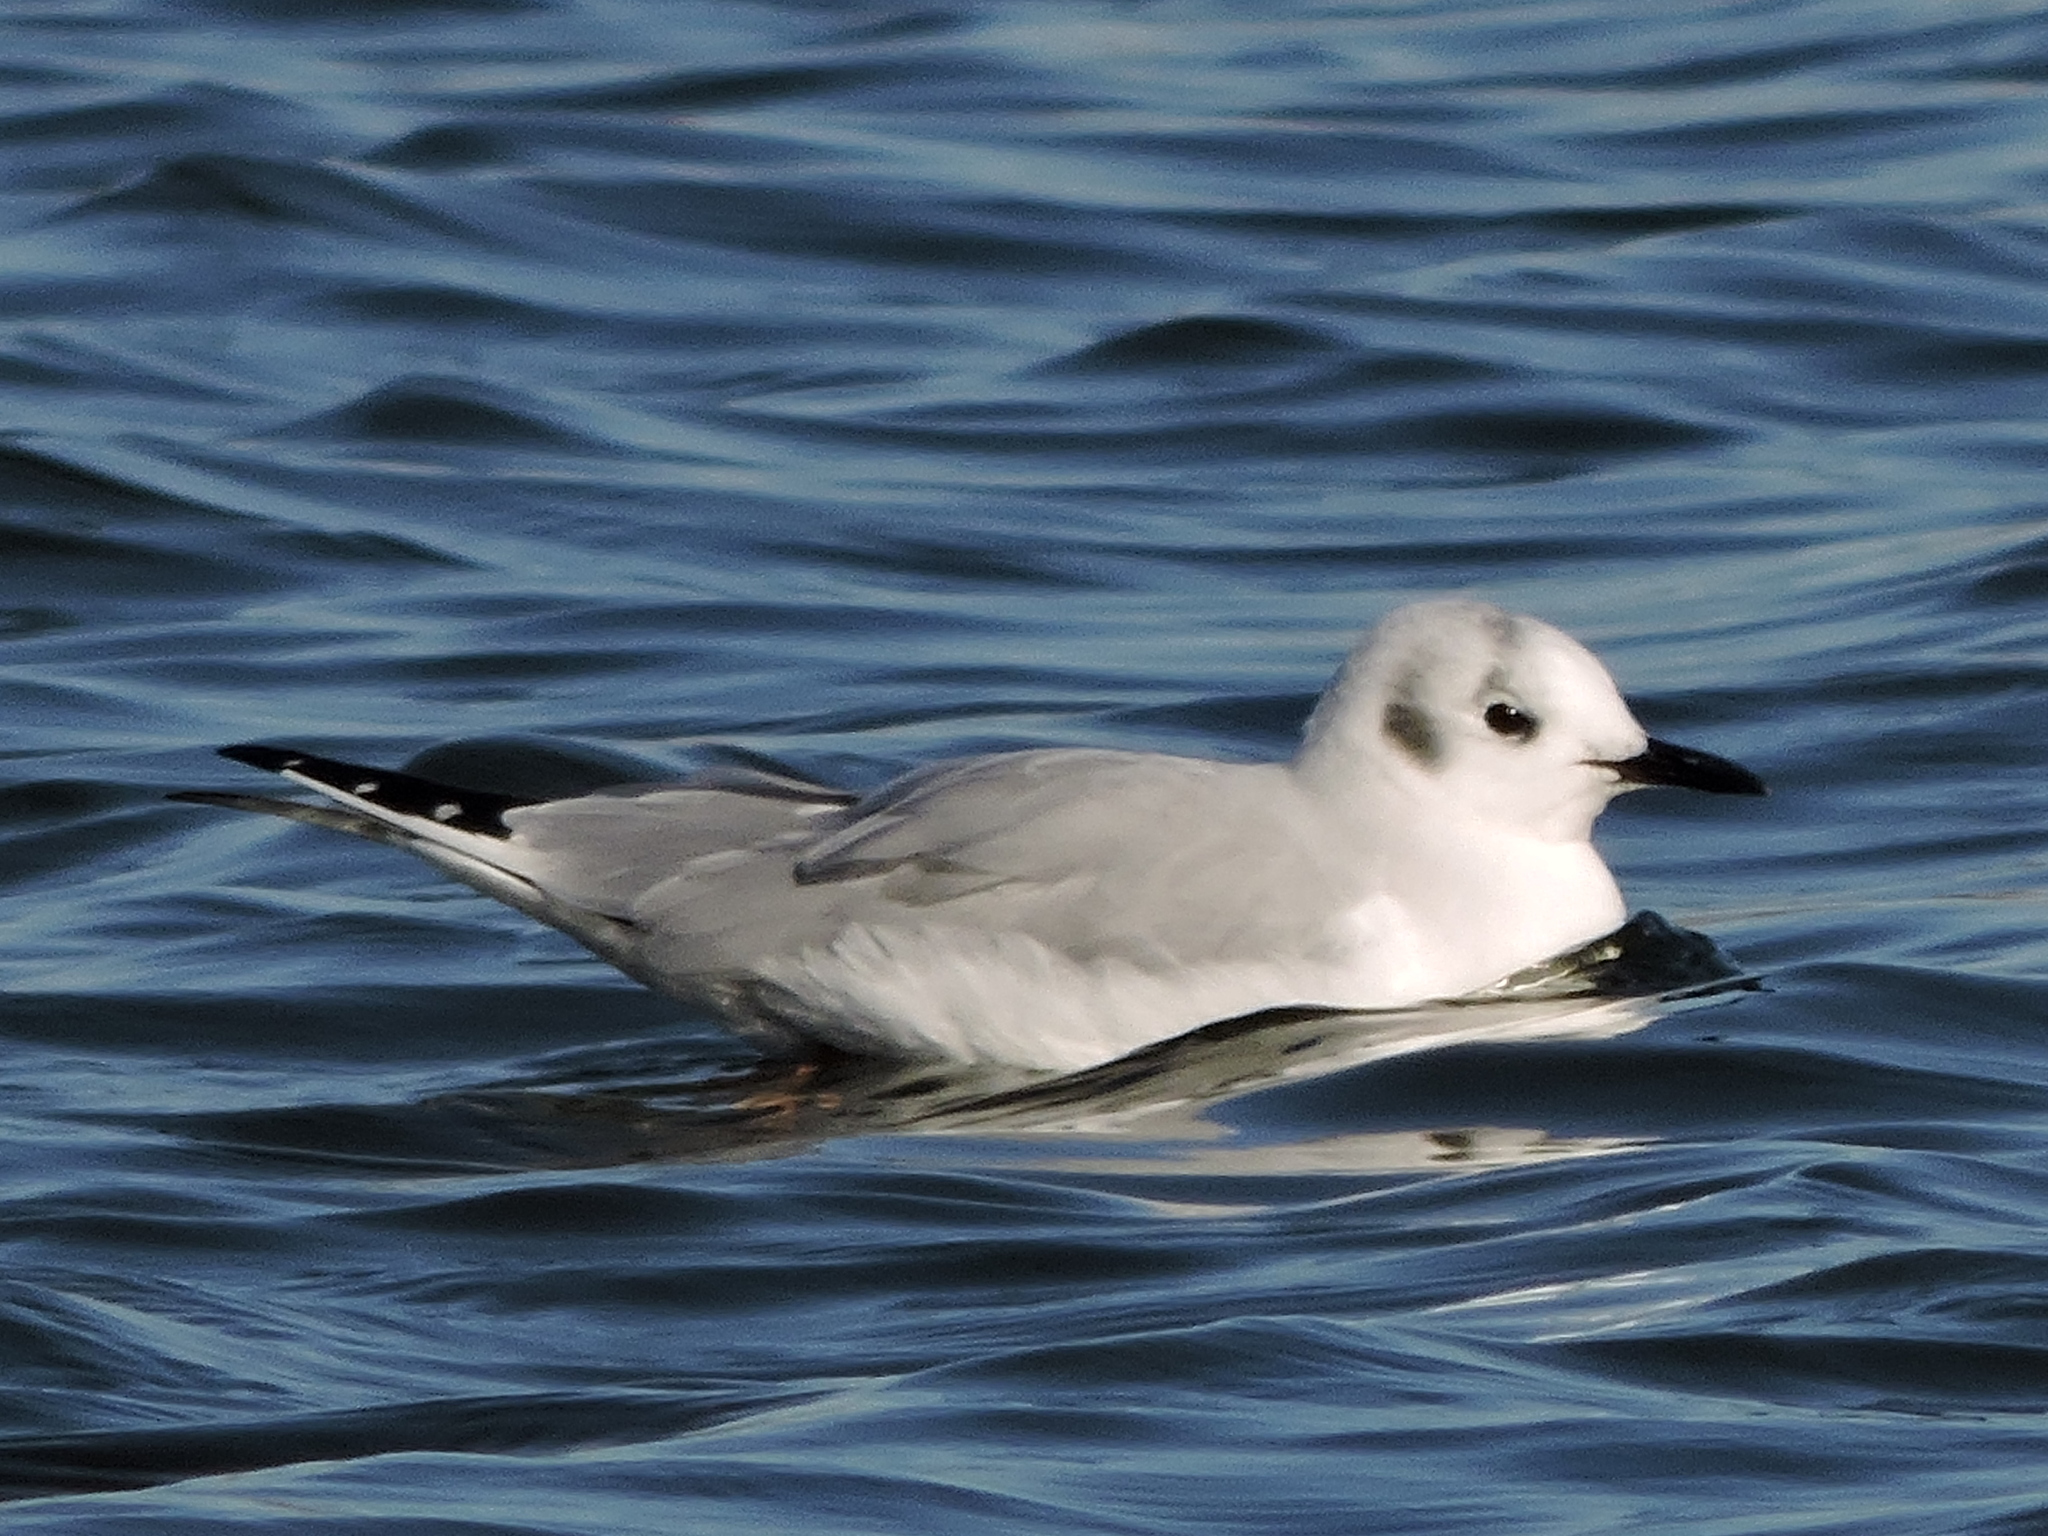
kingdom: Animalia
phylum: Chordata
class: Aves
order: Charadriiformes
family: Laridae
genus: Chroicocephalus
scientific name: Chroicocephalus philadelphia
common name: Bonaparte's gull
